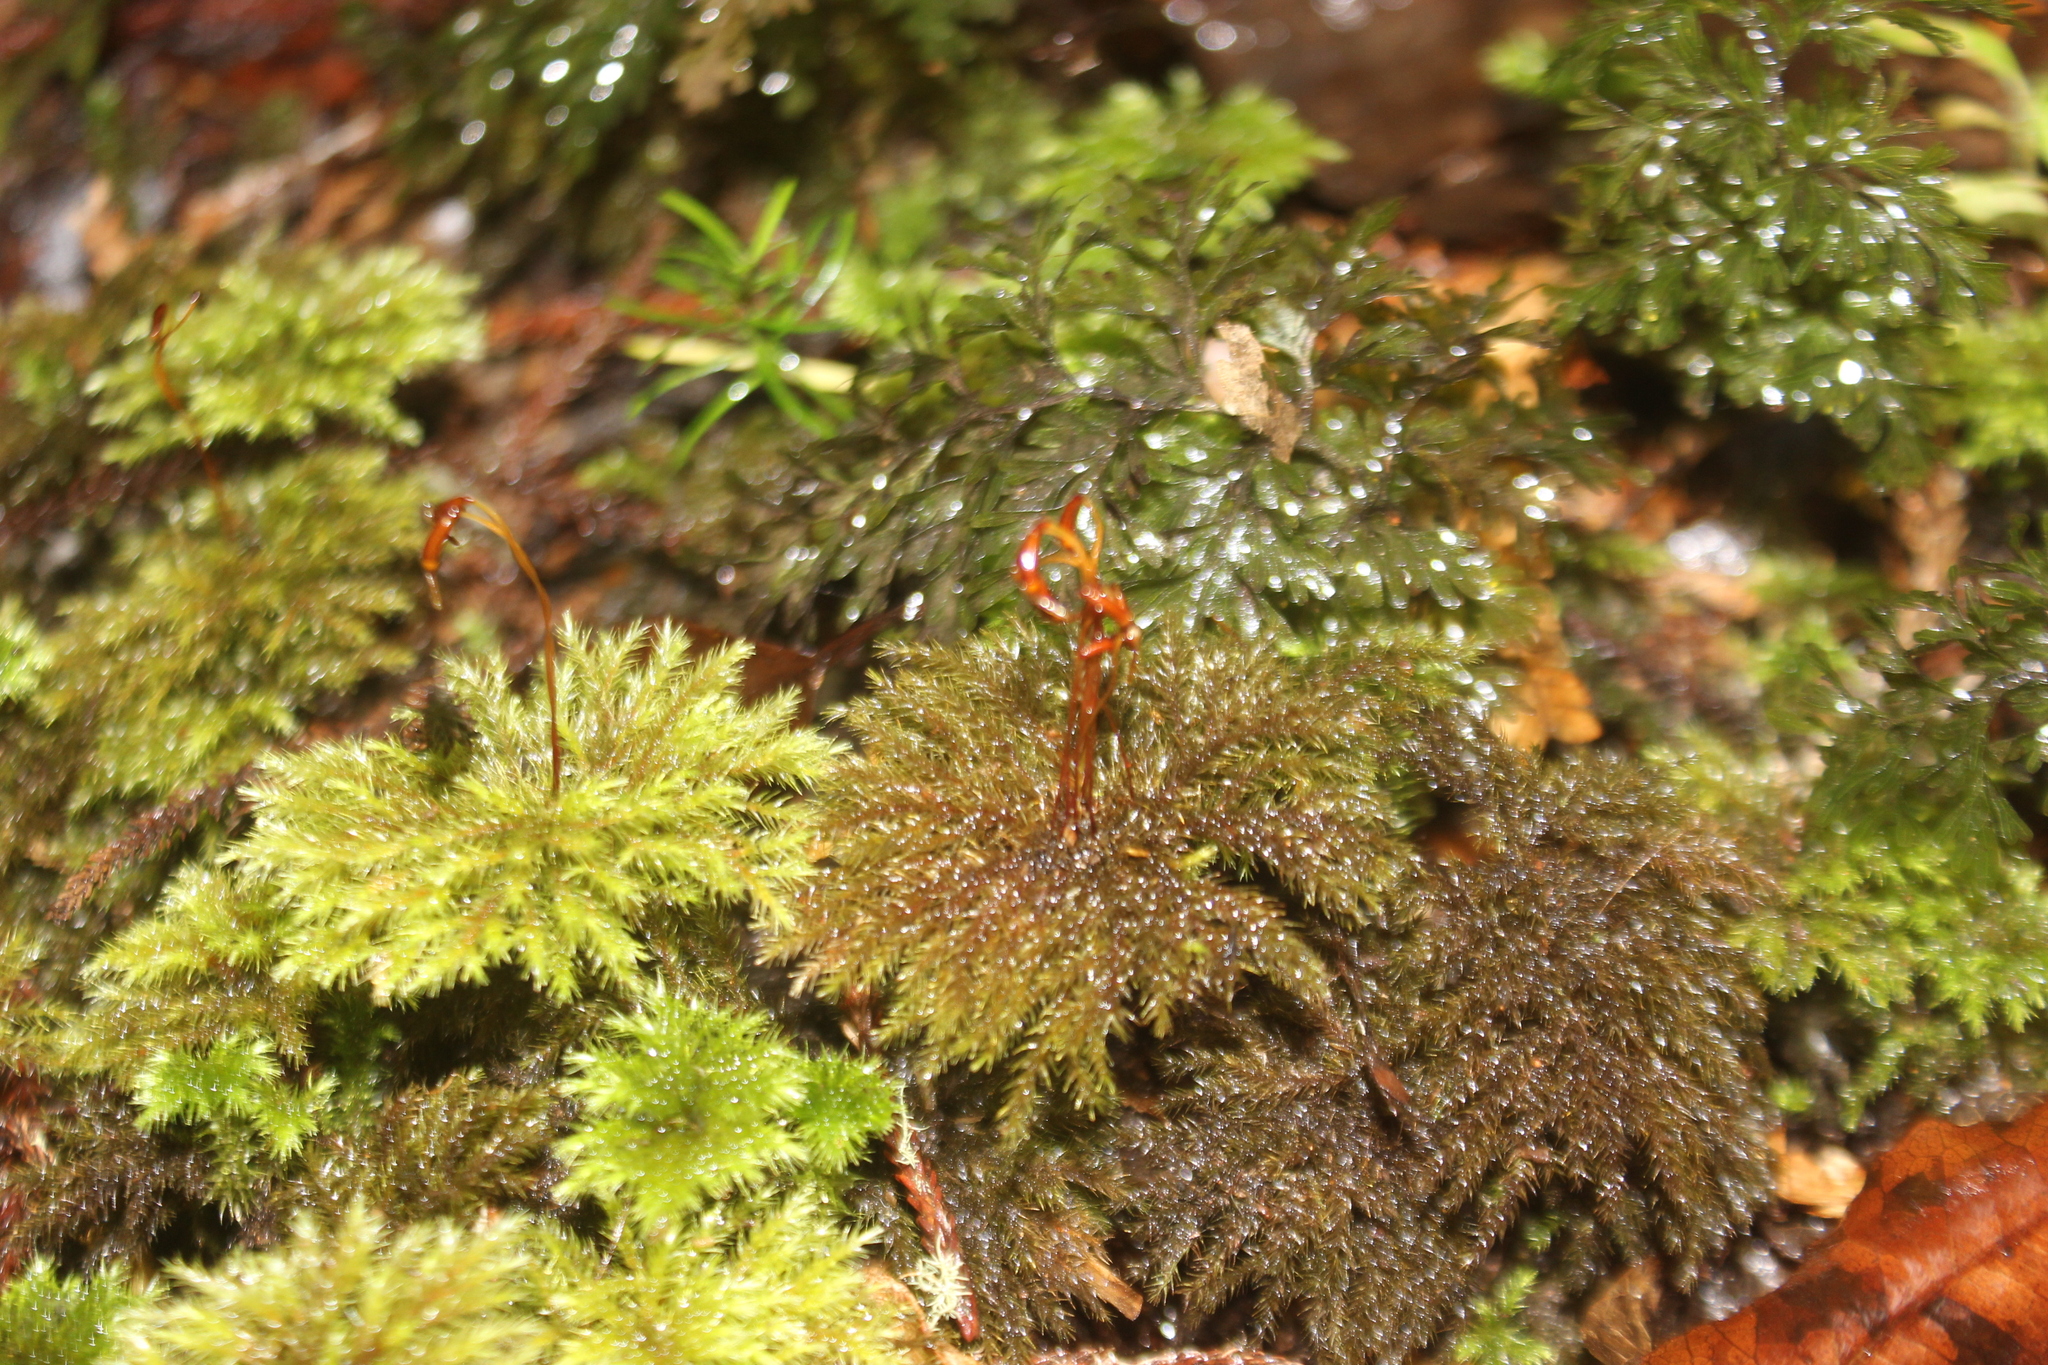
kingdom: Plantae
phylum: Bryophyta
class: Bryopsida
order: Hypnodendrales
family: Spiridentaceae
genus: Mniodendron
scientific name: Mniodendron comatum
